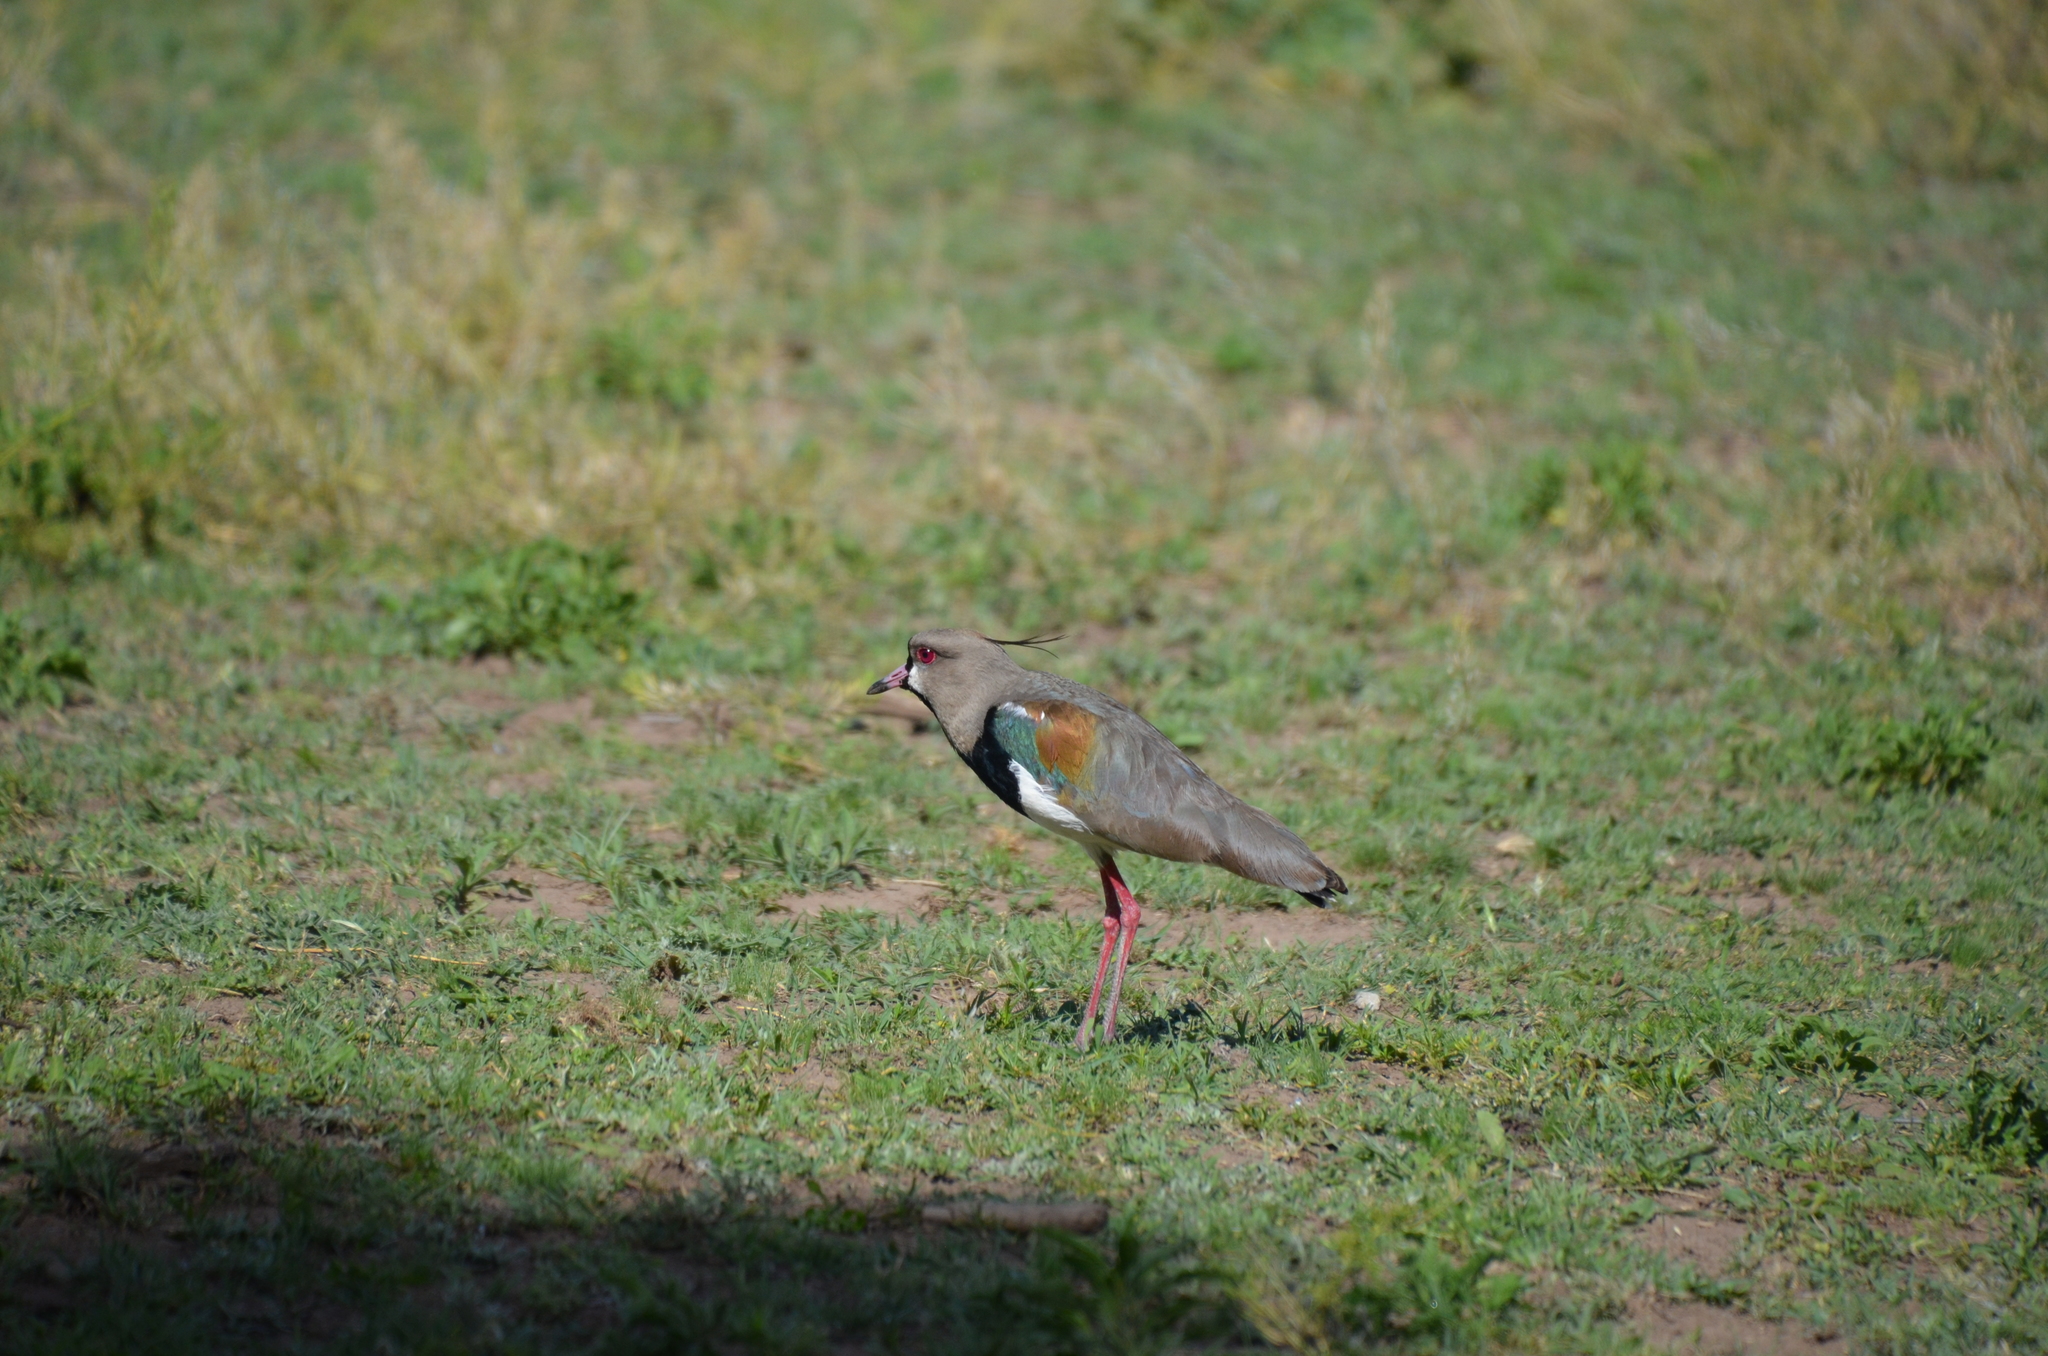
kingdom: Animalia
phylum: Chordata
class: Aves
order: Charadriiformes
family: Charadriidae
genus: Vanellus
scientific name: Vanellus chilensis
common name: Southern lapwing
